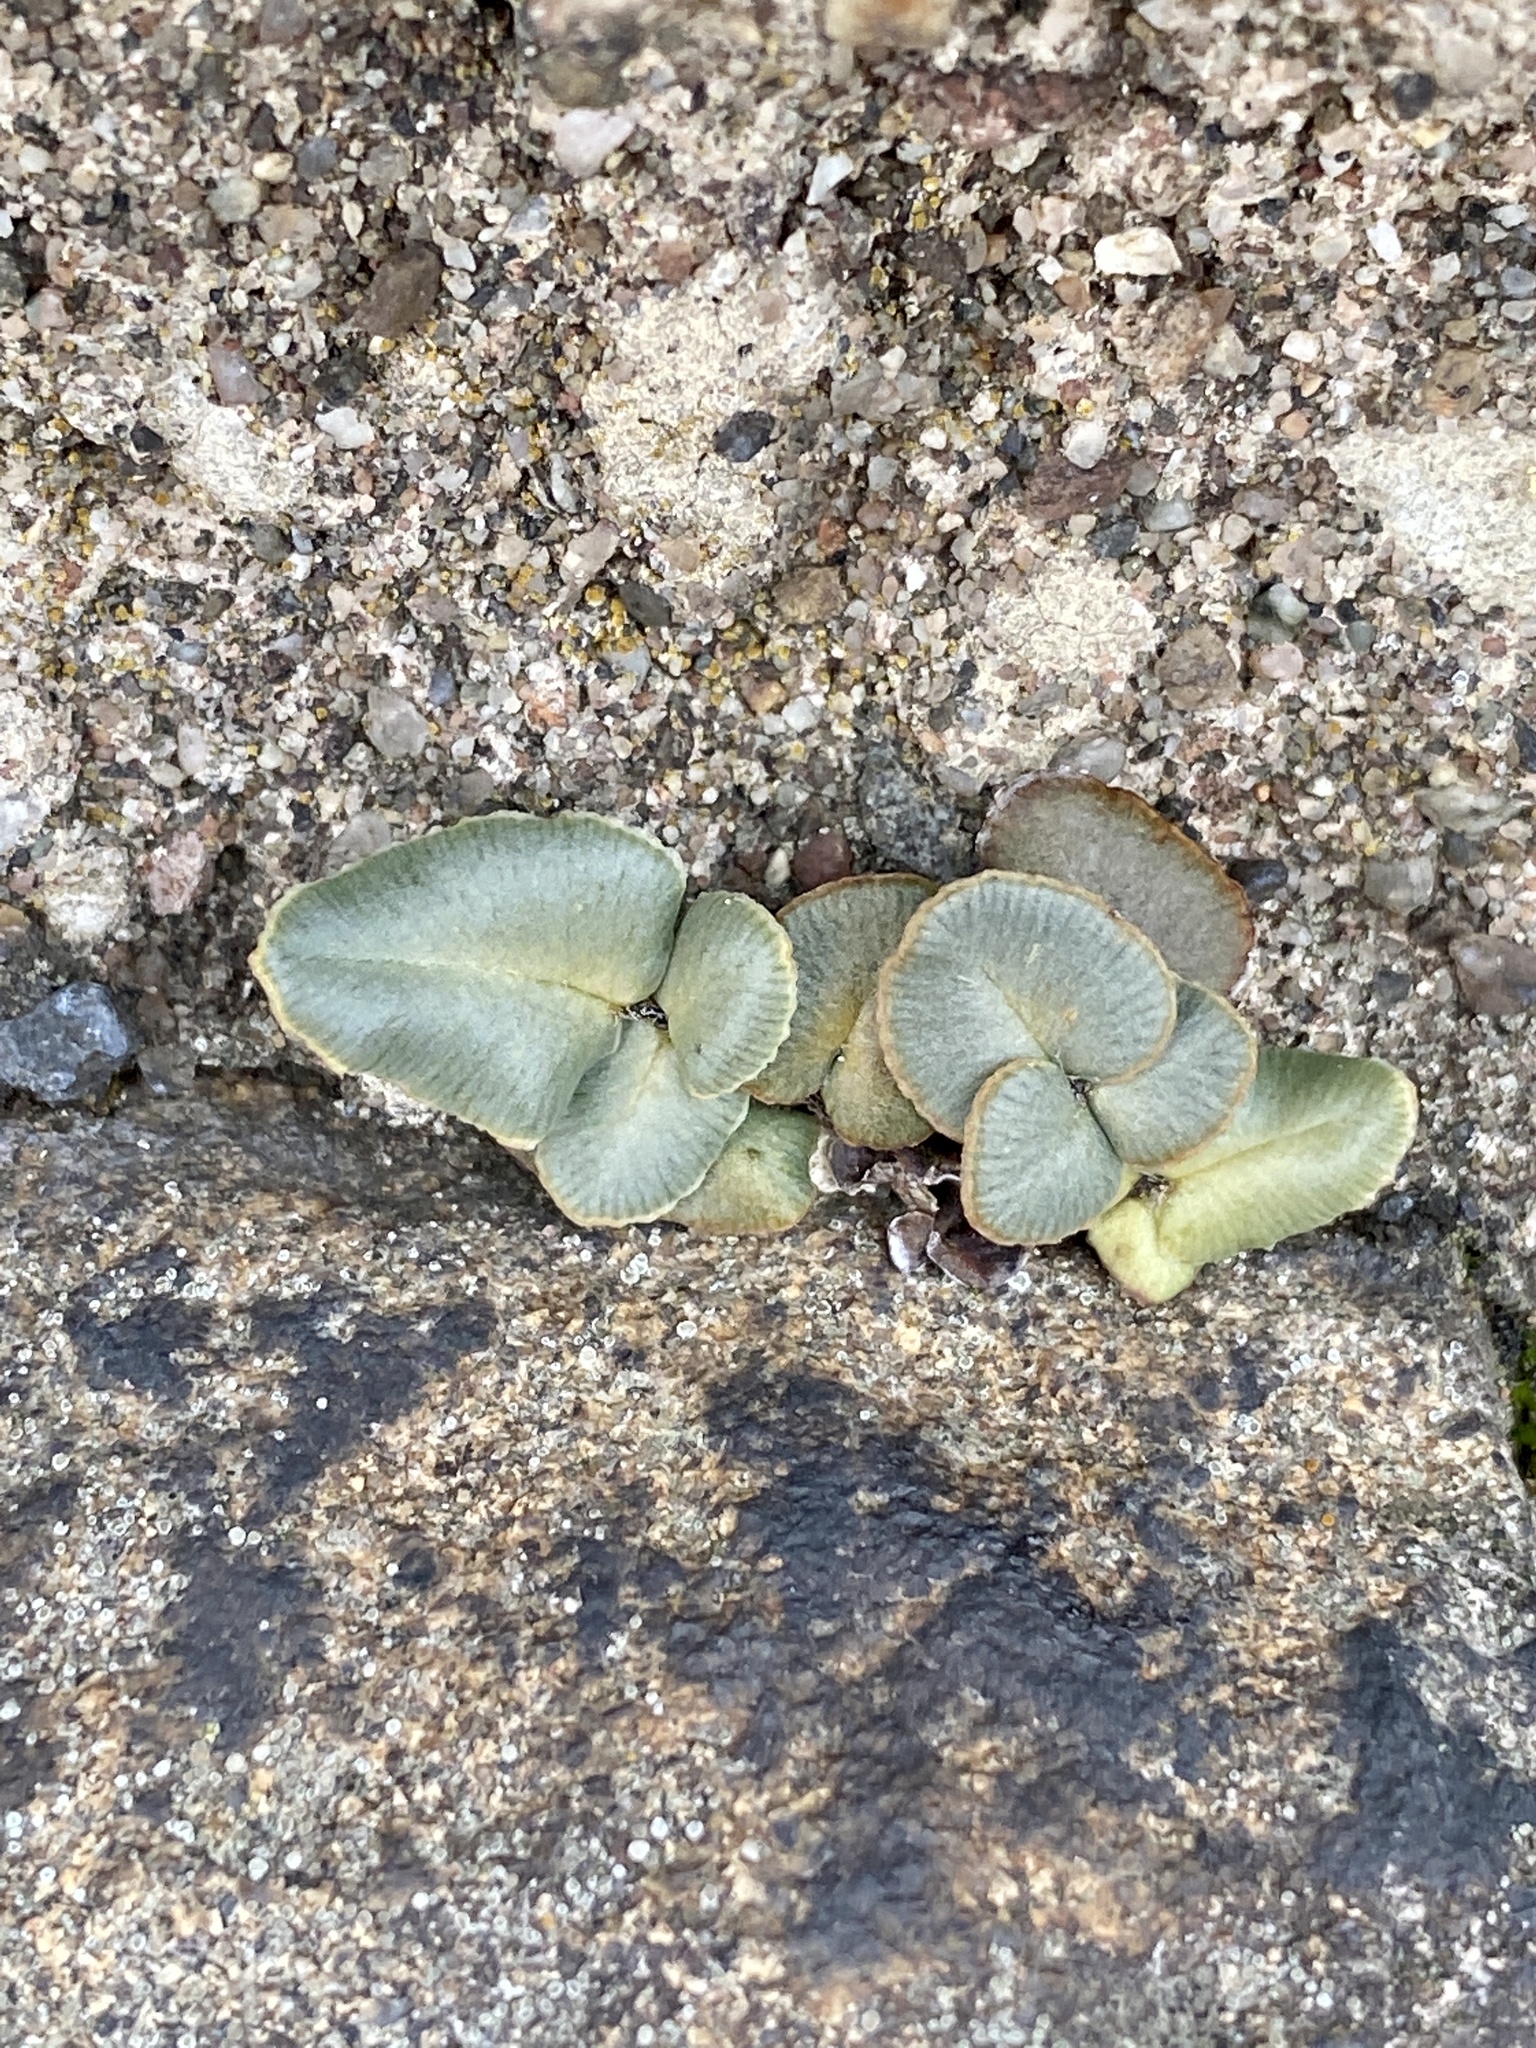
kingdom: Plantae
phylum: Tracheophyta
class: Polypodiopsida
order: Polypodiales
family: Pteridaceae
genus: Pellaea
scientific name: Pellaea atropurpurea
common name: Hairy cliffbrake
